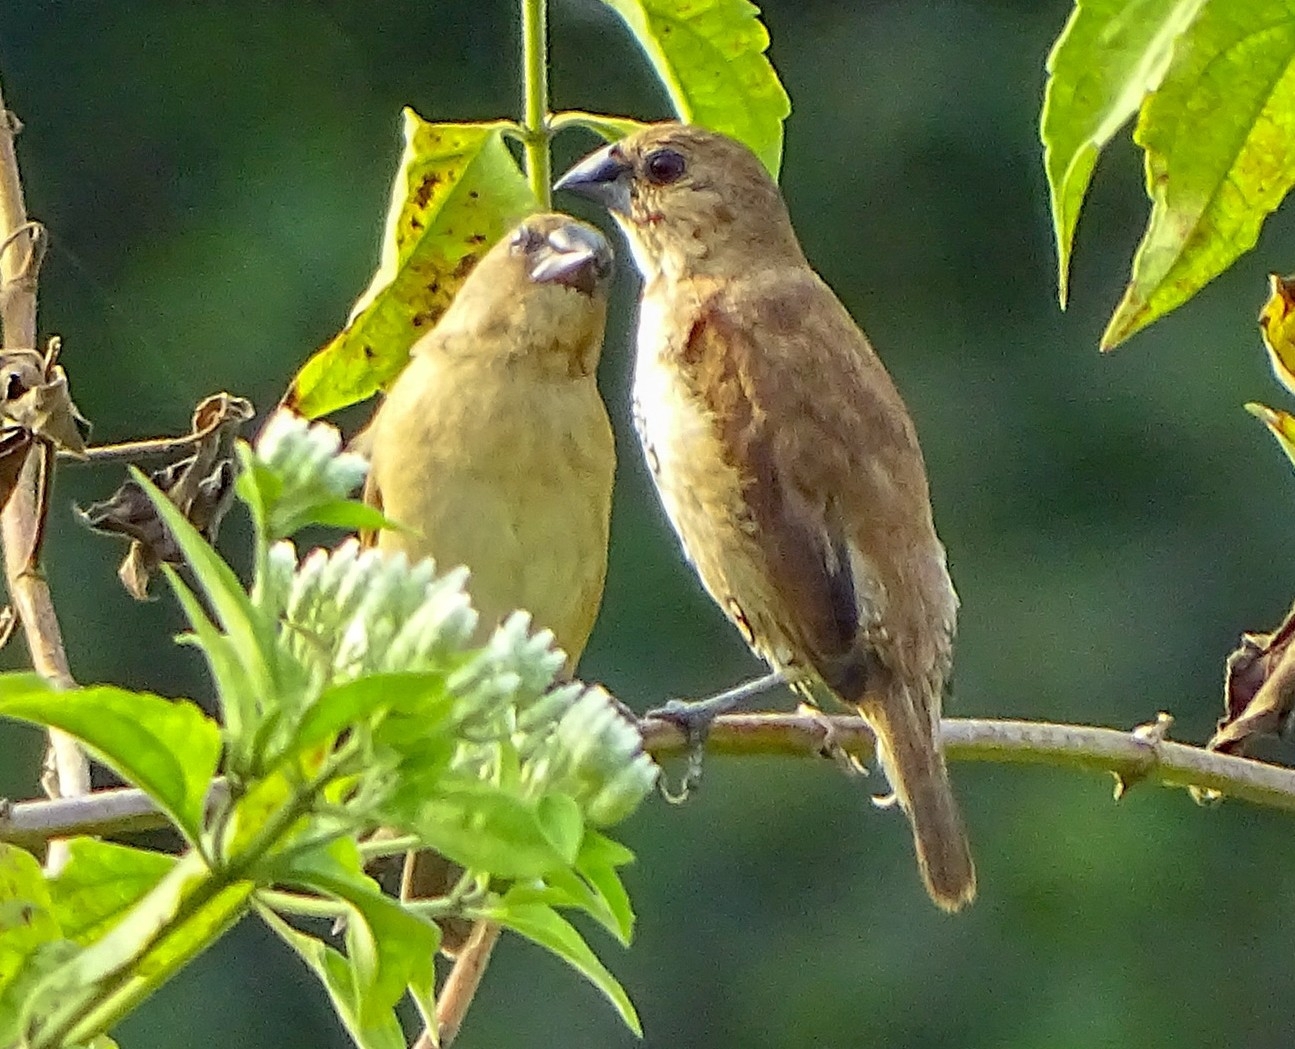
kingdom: Animalia
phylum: Chordata
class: Aves
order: Passeriformes
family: Estrildidae
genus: Lonchura
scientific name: Lonchura punctulata
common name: Scaly-breasted munia
